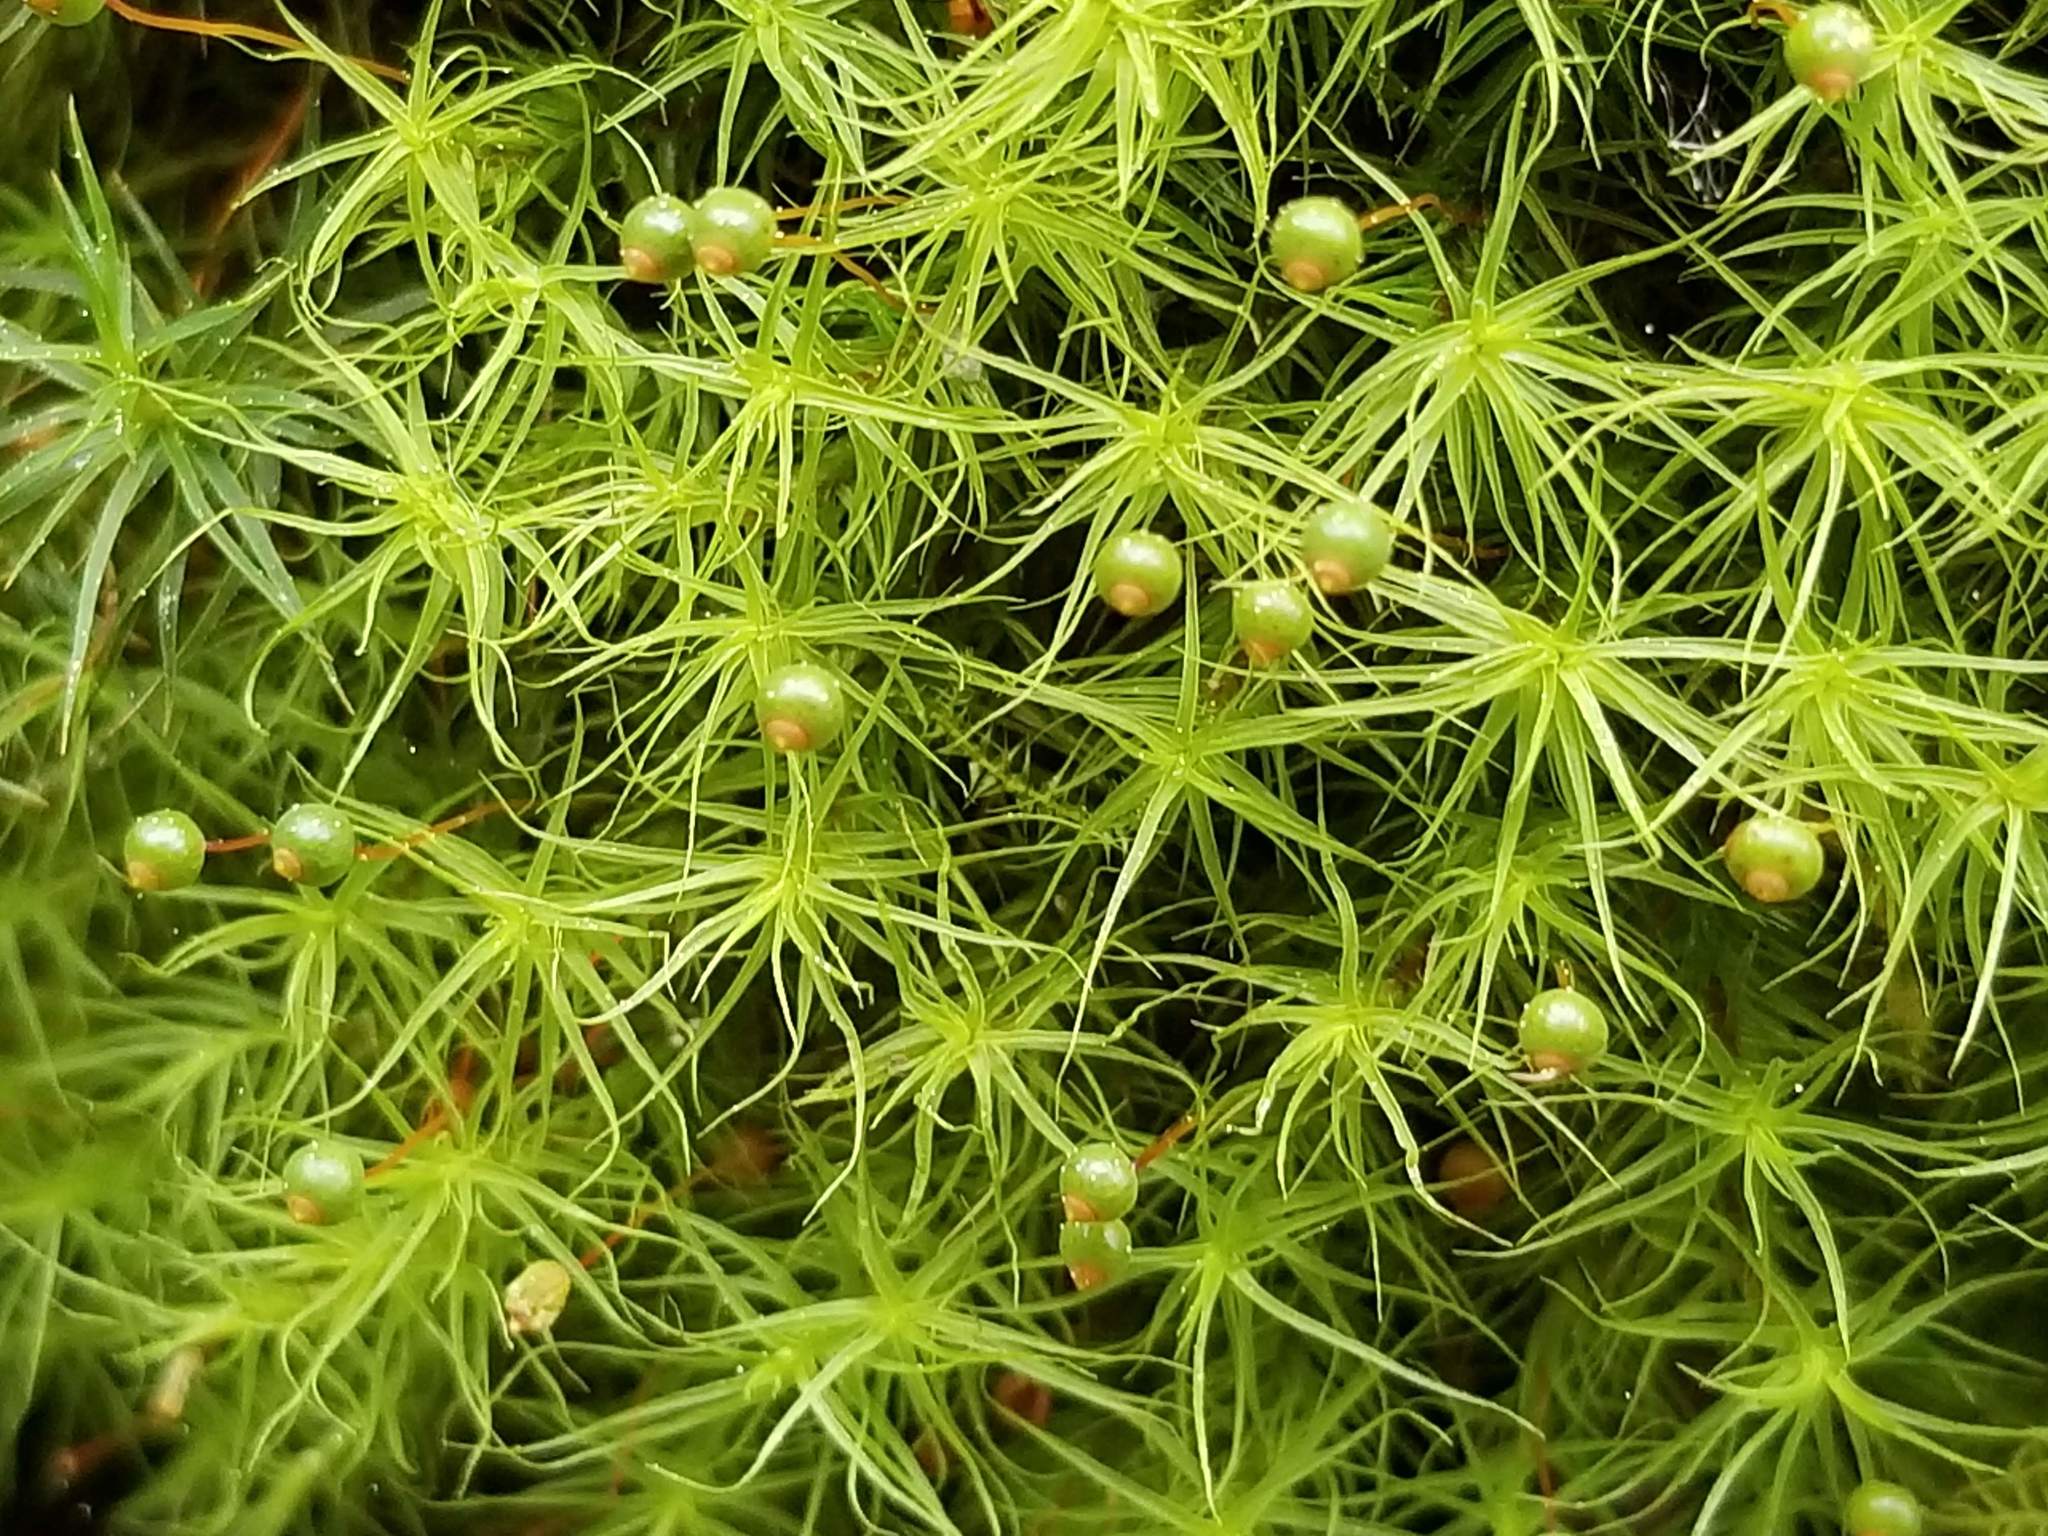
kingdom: Plantae
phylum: Bryophyta
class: Bryopsida
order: Bartramiales
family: Bartramiaceae
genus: Bartramia
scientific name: Bartramia ithyphylla
